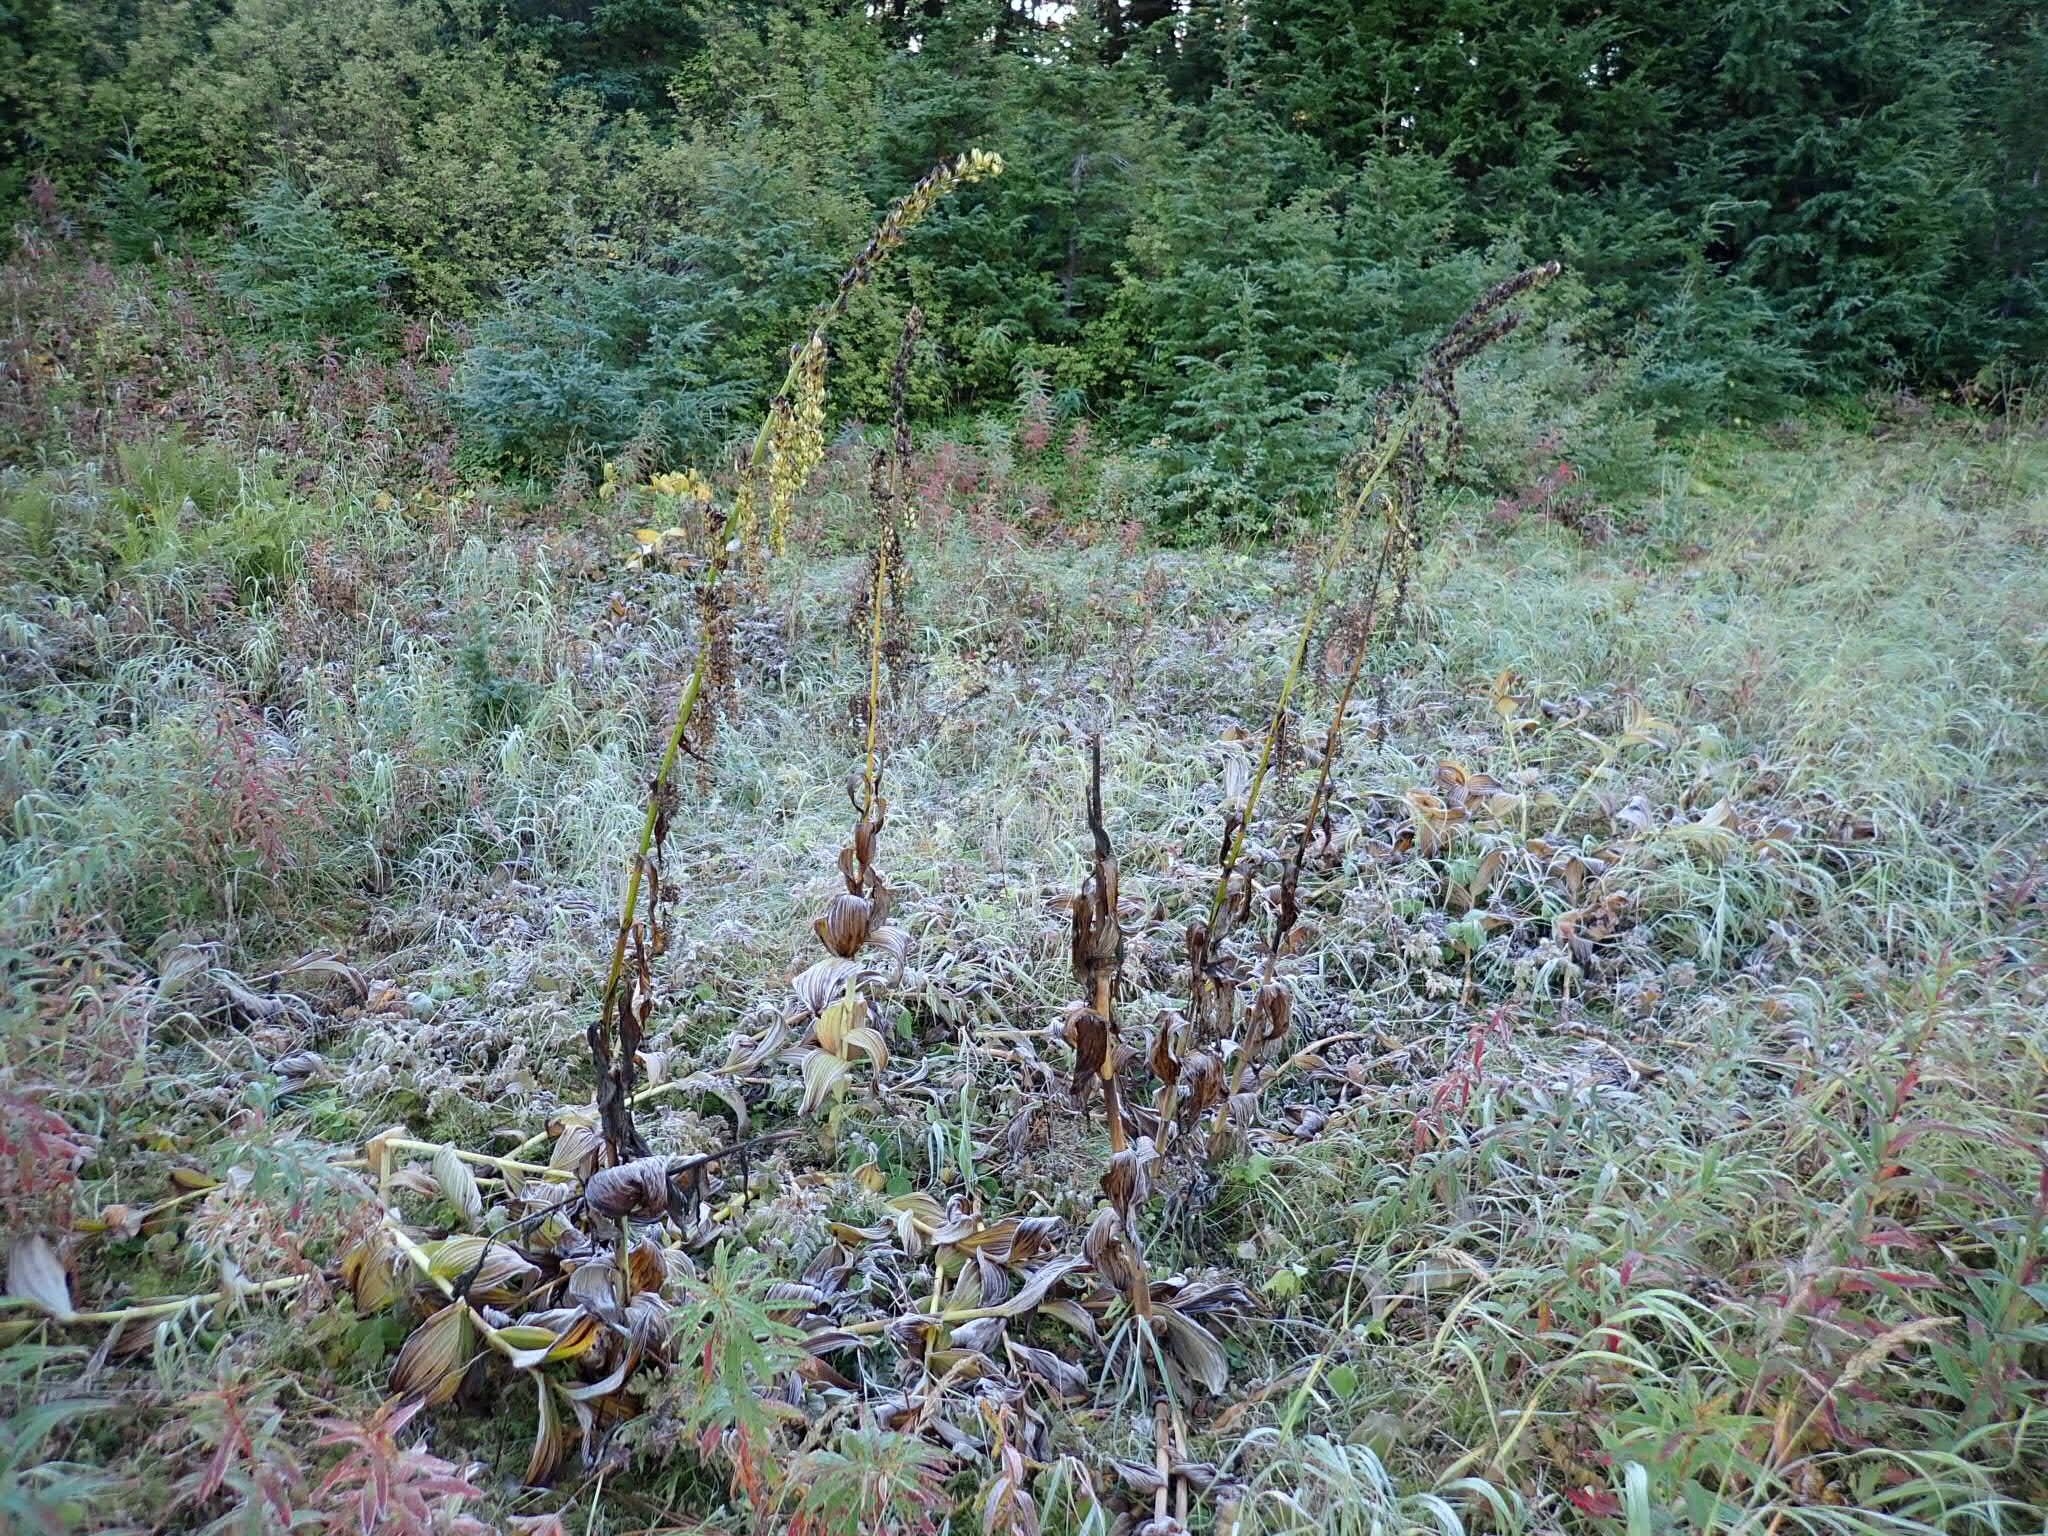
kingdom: Plantae
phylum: Tracheophyta
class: Liliopsida
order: Liliales
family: Melanthiaceae
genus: Veratrum
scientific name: Veratrum viride
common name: American false hellebore
